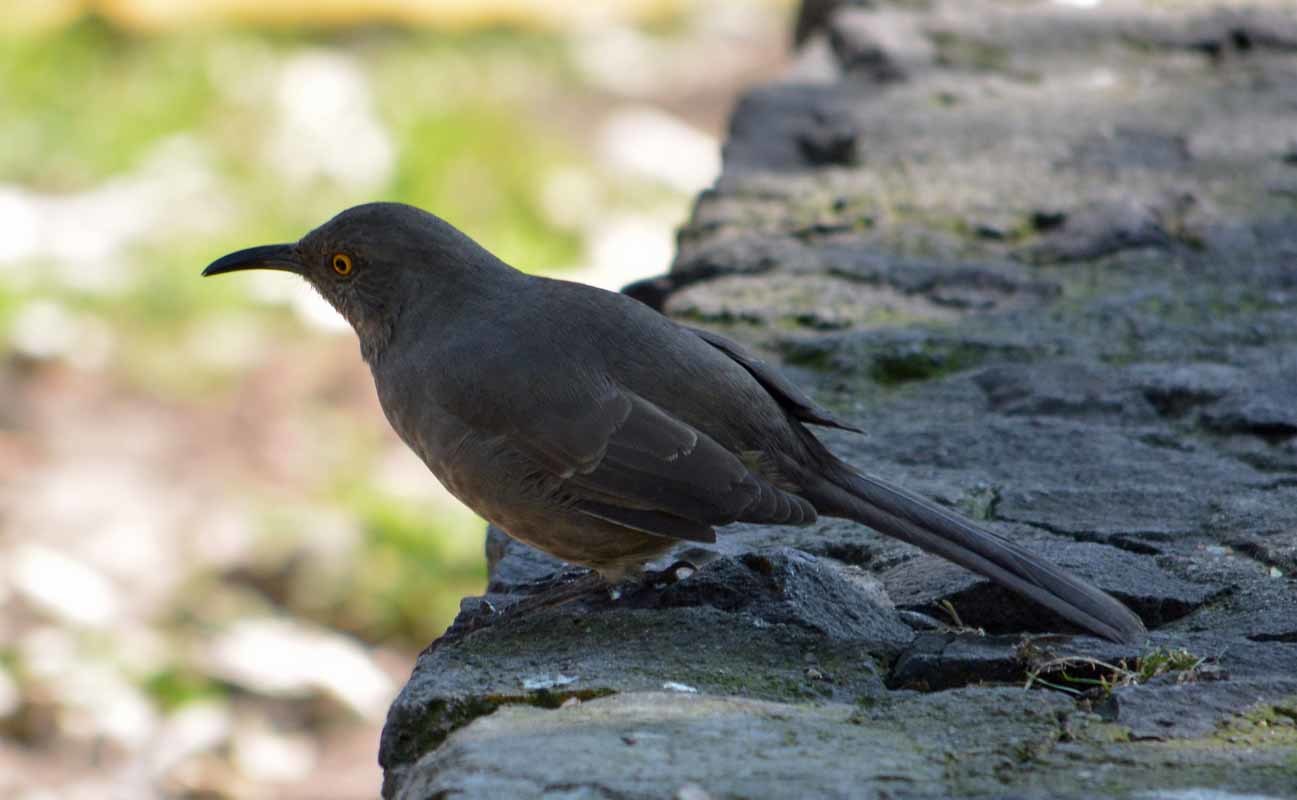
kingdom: Animalia
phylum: Chordata
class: Aves
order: Passeriformes
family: Mimidae
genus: Toxostoma
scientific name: Toxostoma curvirostre
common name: Curve-billed thrasher
